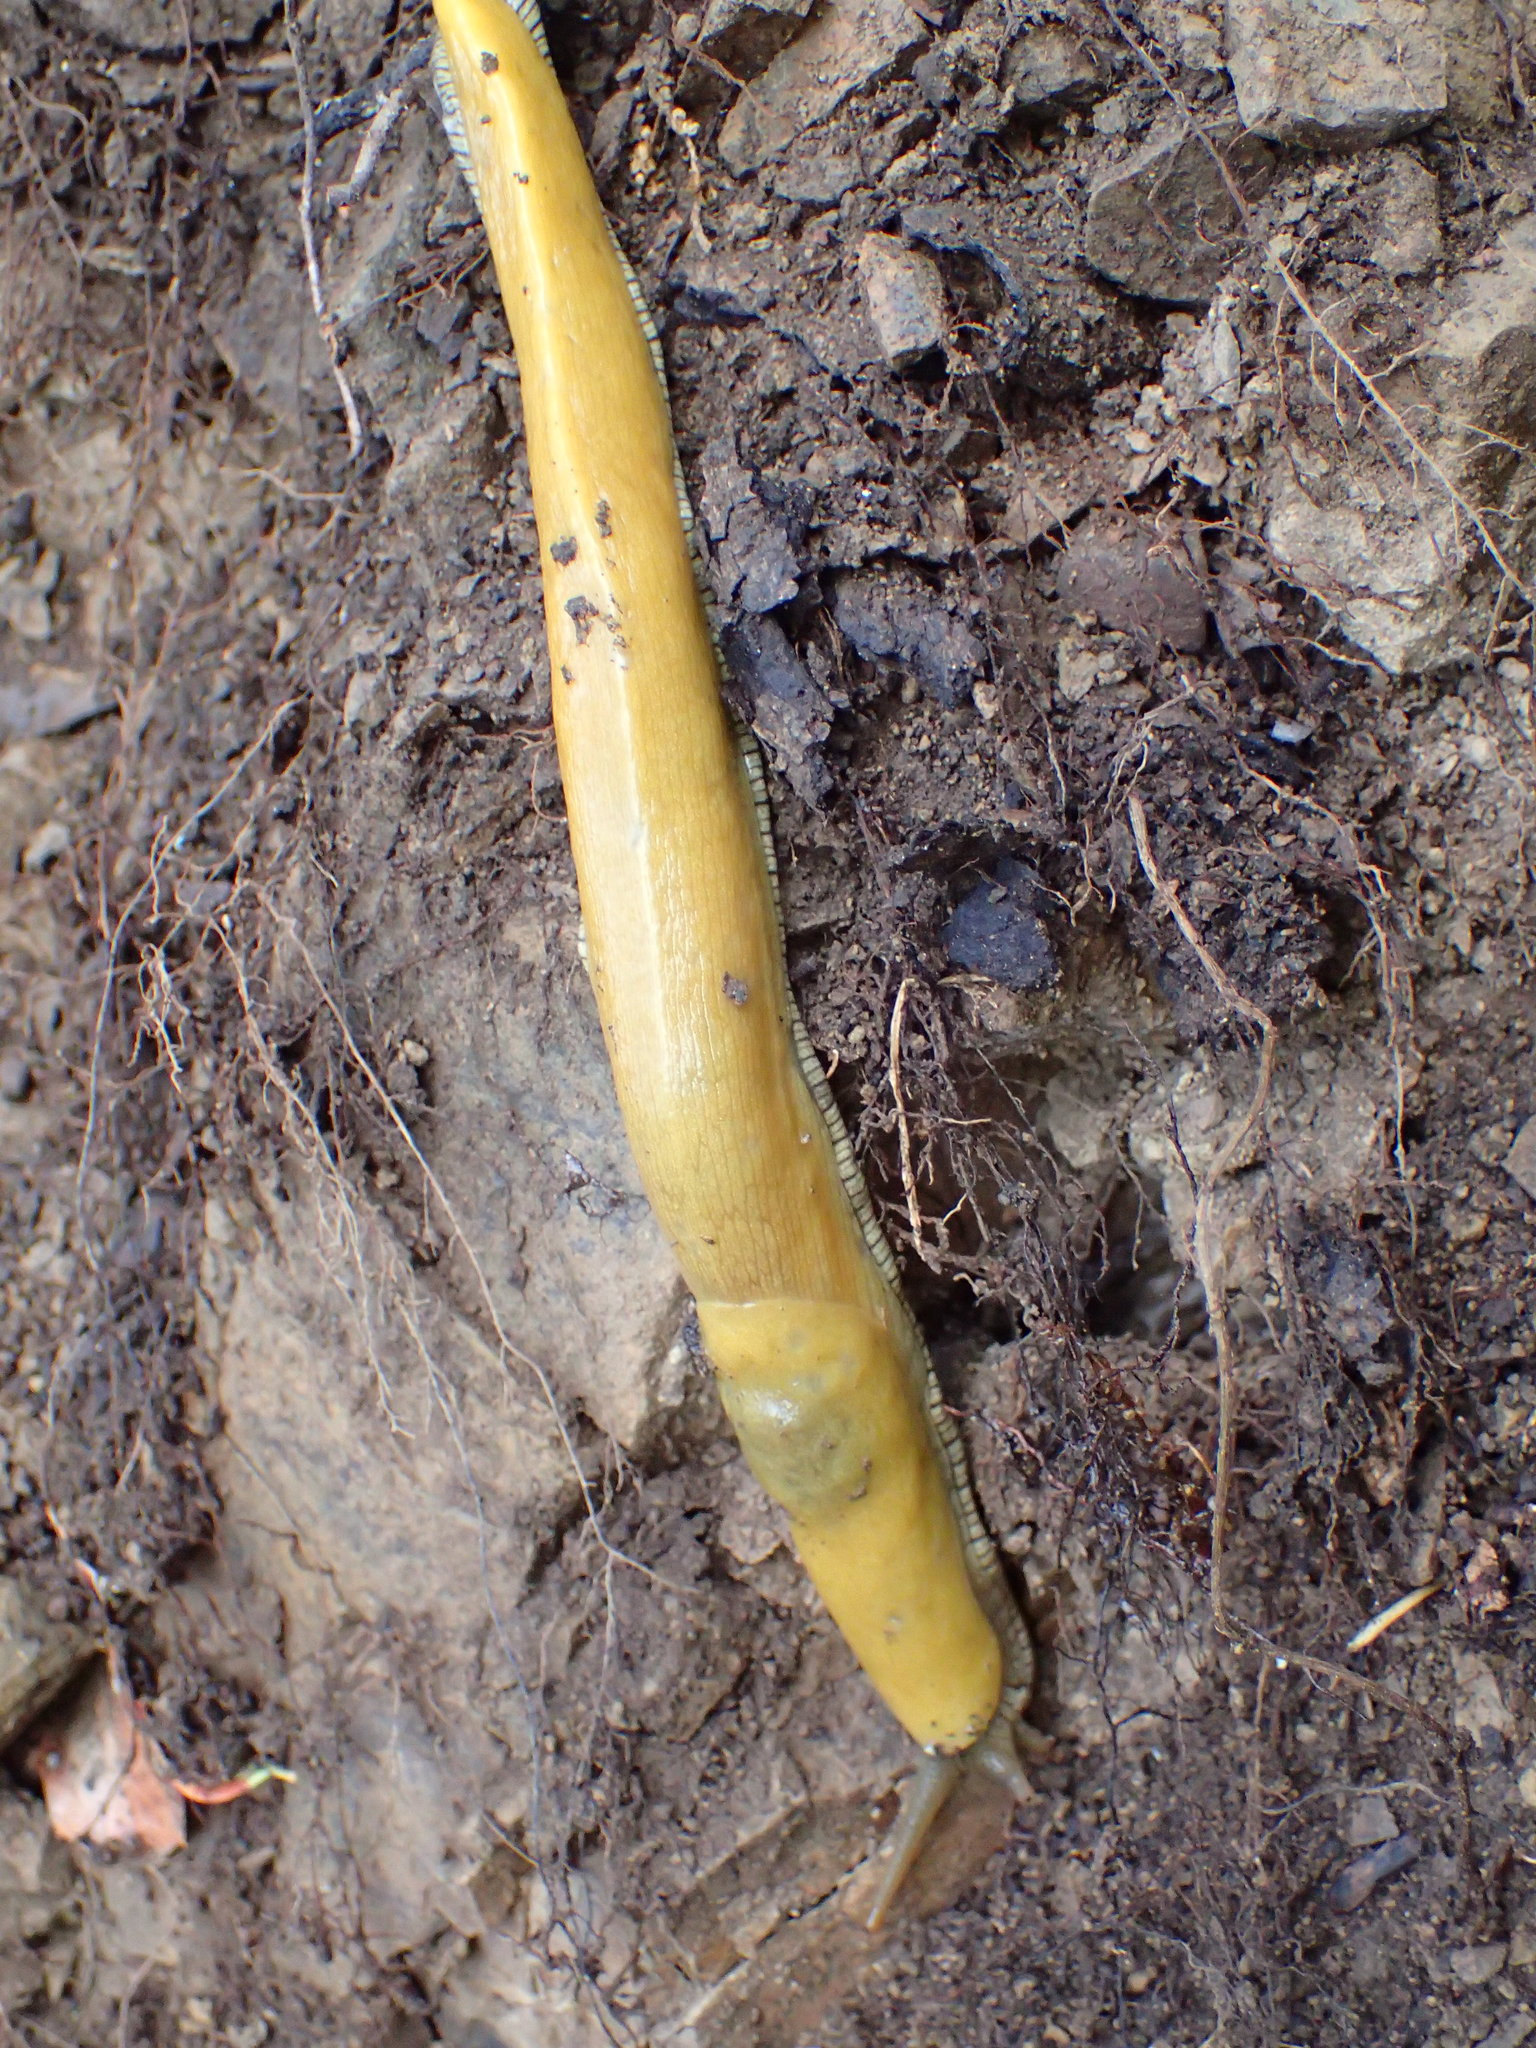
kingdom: Animalia
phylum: Mollusca
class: Gastropoda
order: Stylommatophora
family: Ariolimacidae
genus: Ariolimax
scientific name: Ariolimax stramineus
